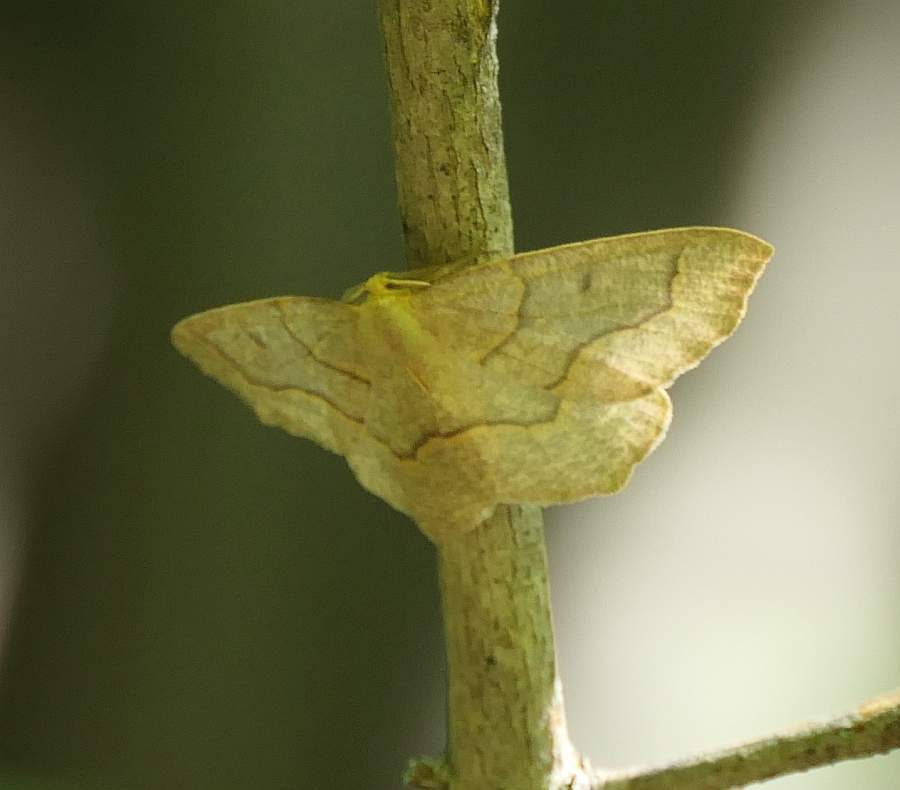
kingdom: Animalia
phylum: Arthropoda
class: Insecta
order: Lepidoptera
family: Geometridae
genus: Lambdina
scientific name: Lambdina fiscellaria
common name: Hemlock looper
